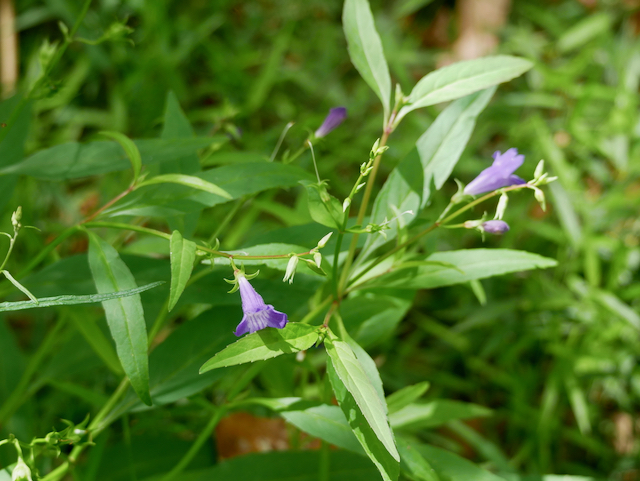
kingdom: Plantae
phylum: Tracheophyta
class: Magnoliopsida
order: Lamiales
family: Linderniaceae
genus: Artanema
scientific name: Artanema fimbriatum
